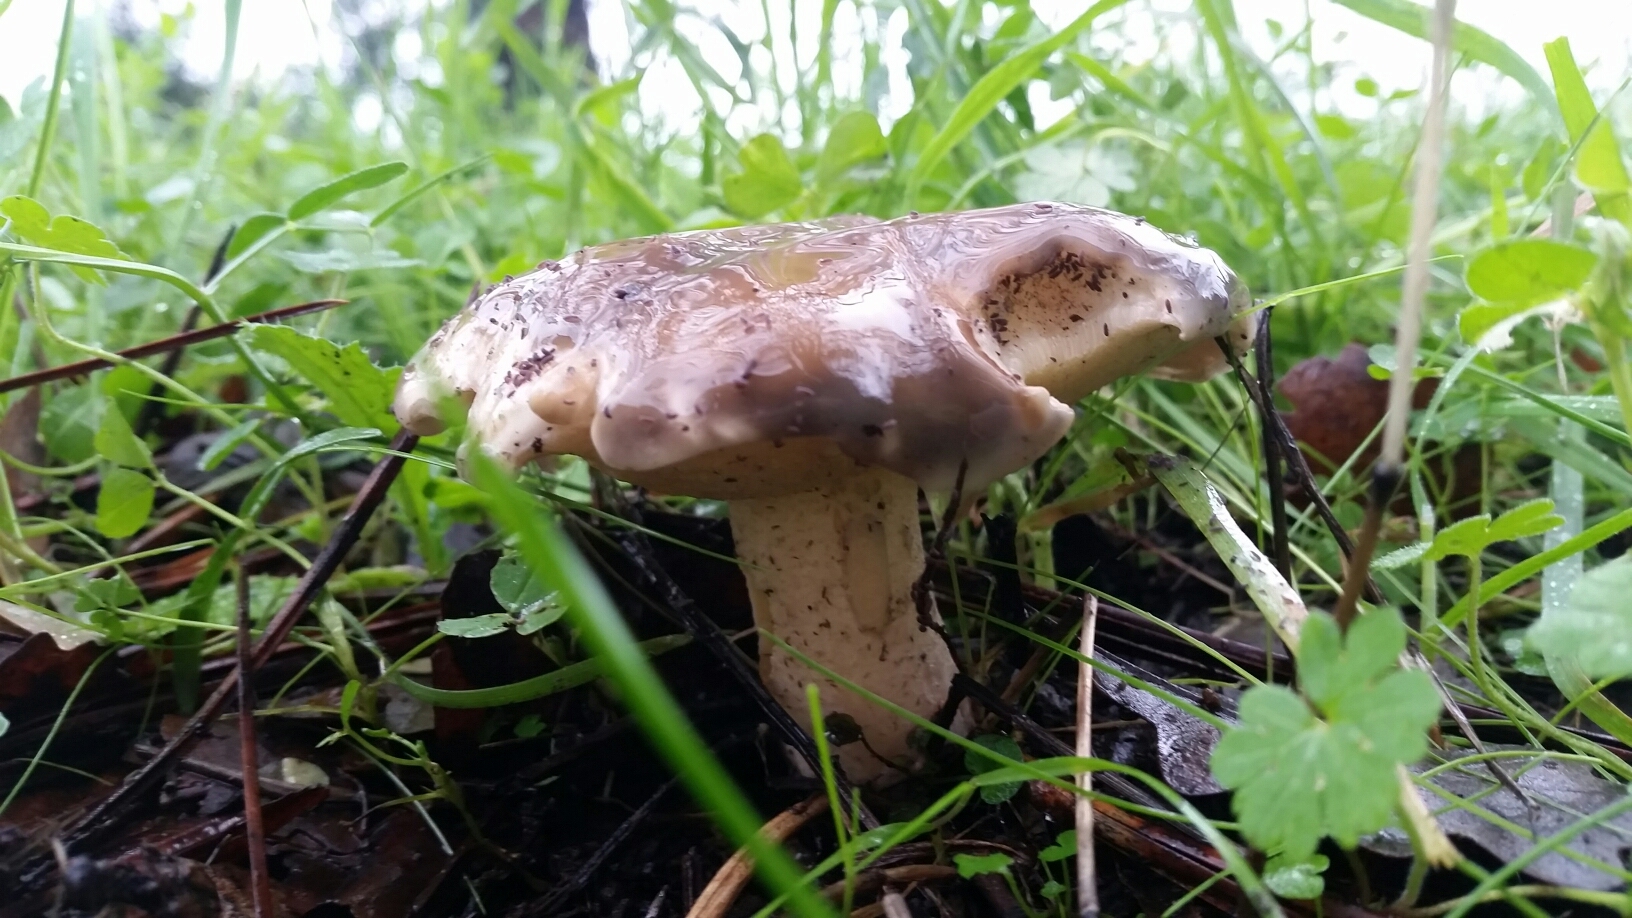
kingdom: Fungi
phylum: Basidiomycota
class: Agaricomycetes
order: Boletales
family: Suillaceae
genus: Suillus
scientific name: Suillus pungens
